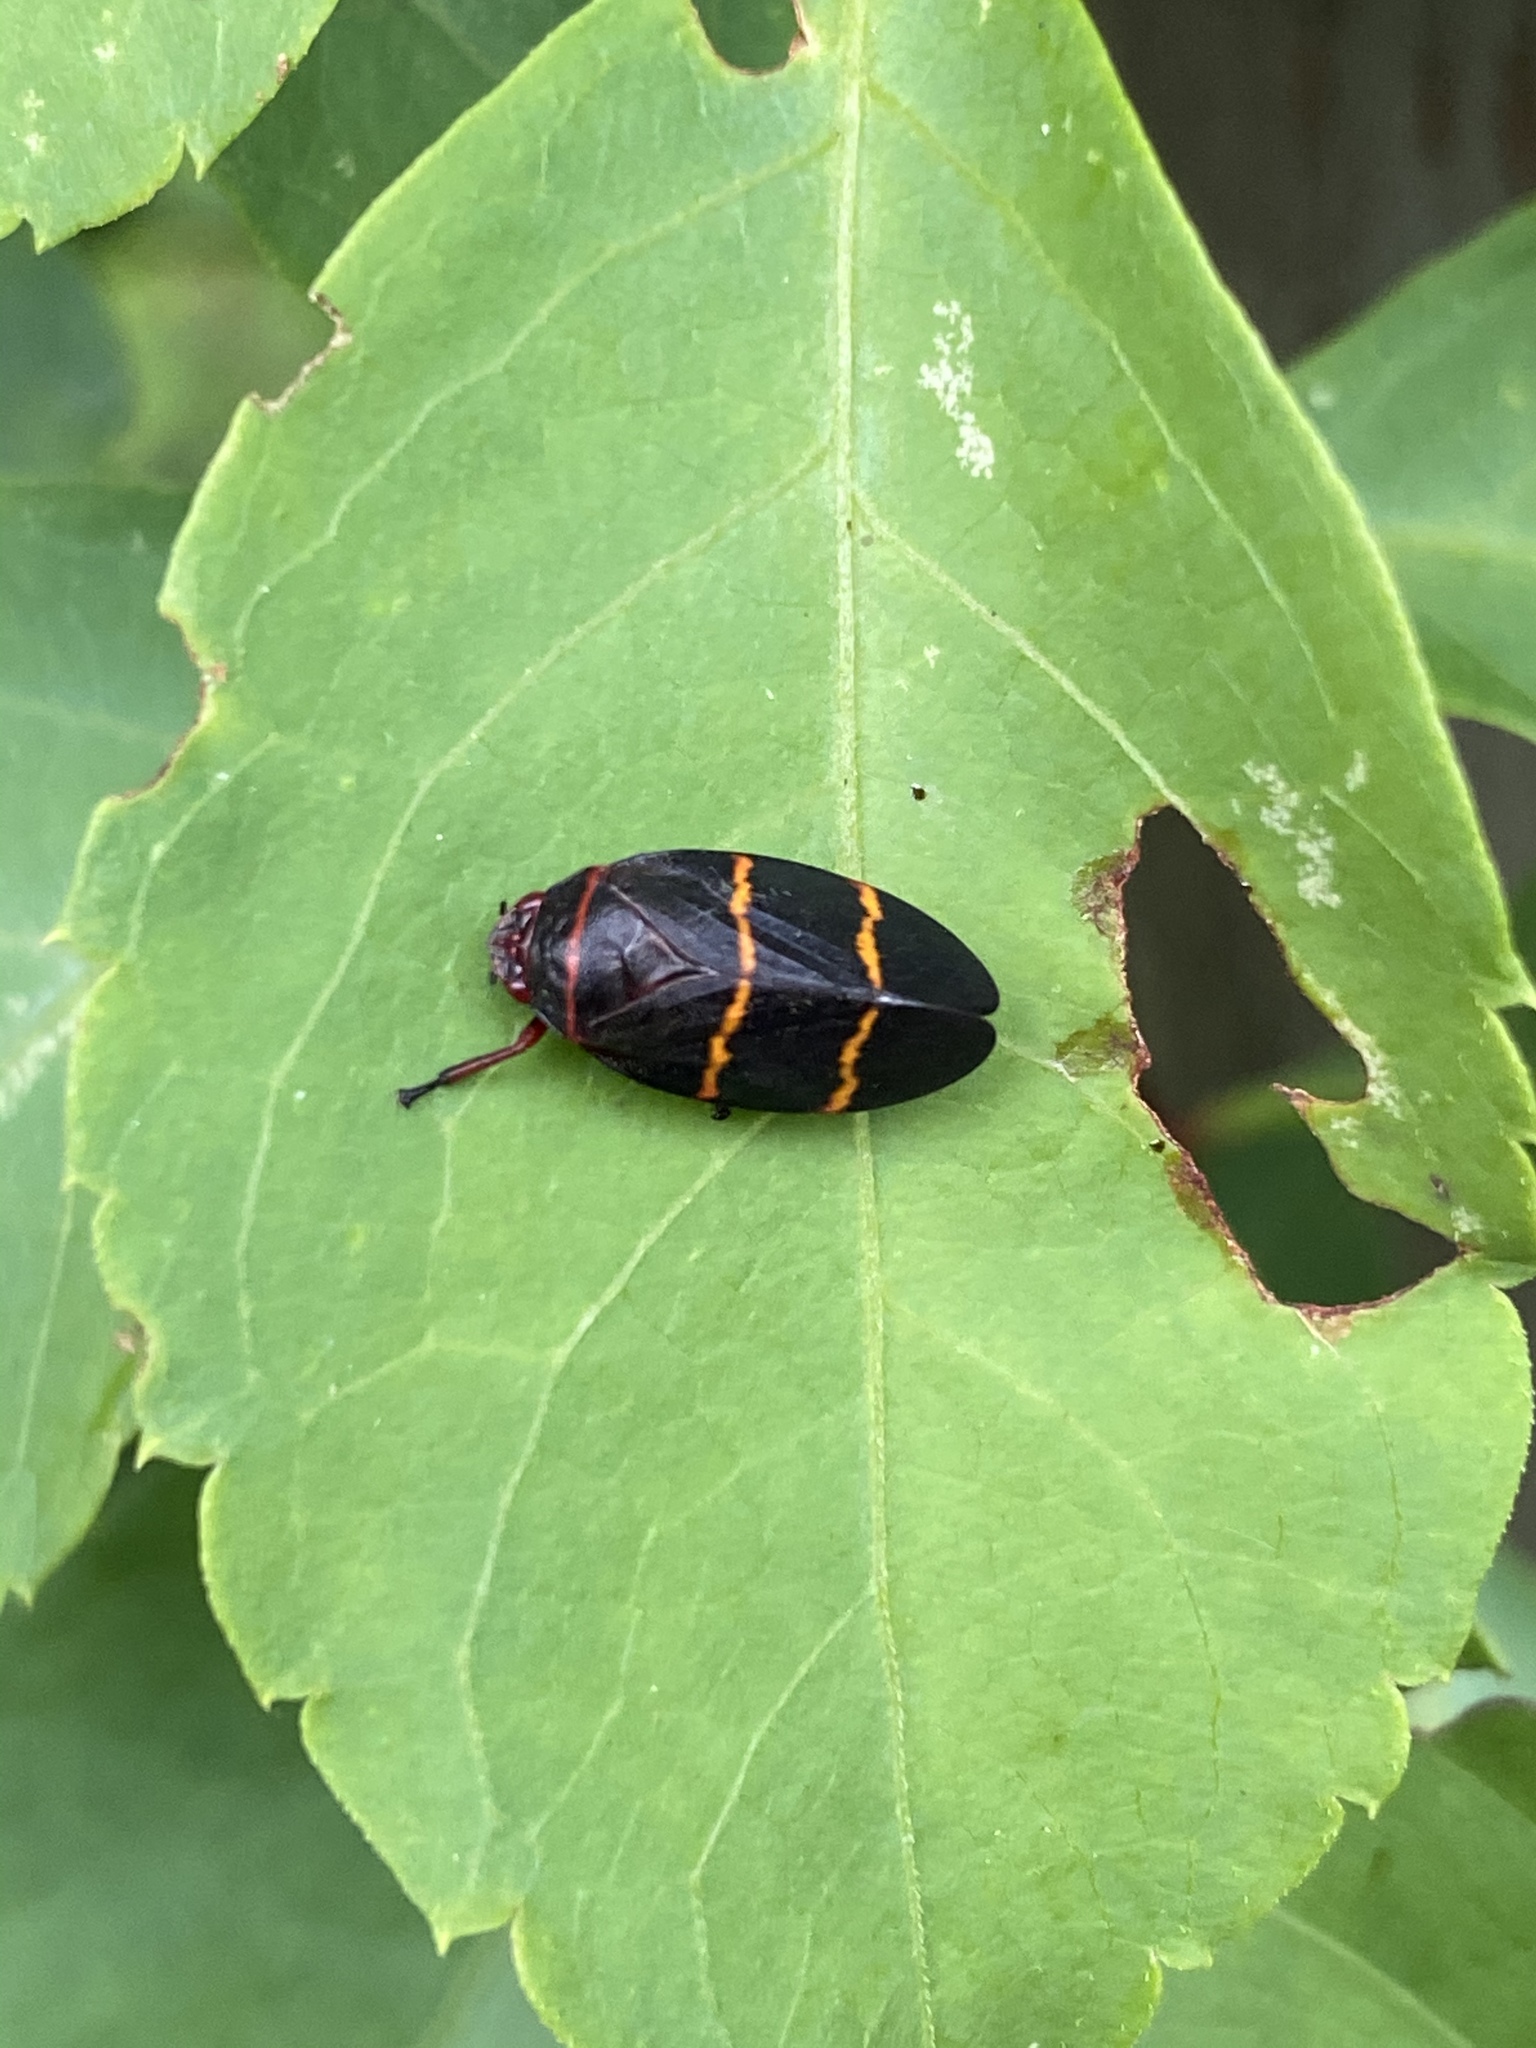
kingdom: Animalia
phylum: Arthropoda
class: Insecta
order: Hemiptera
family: Cercopidae
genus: Prosapia
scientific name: Prosapia bicincta
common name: Twolined spittlebug
